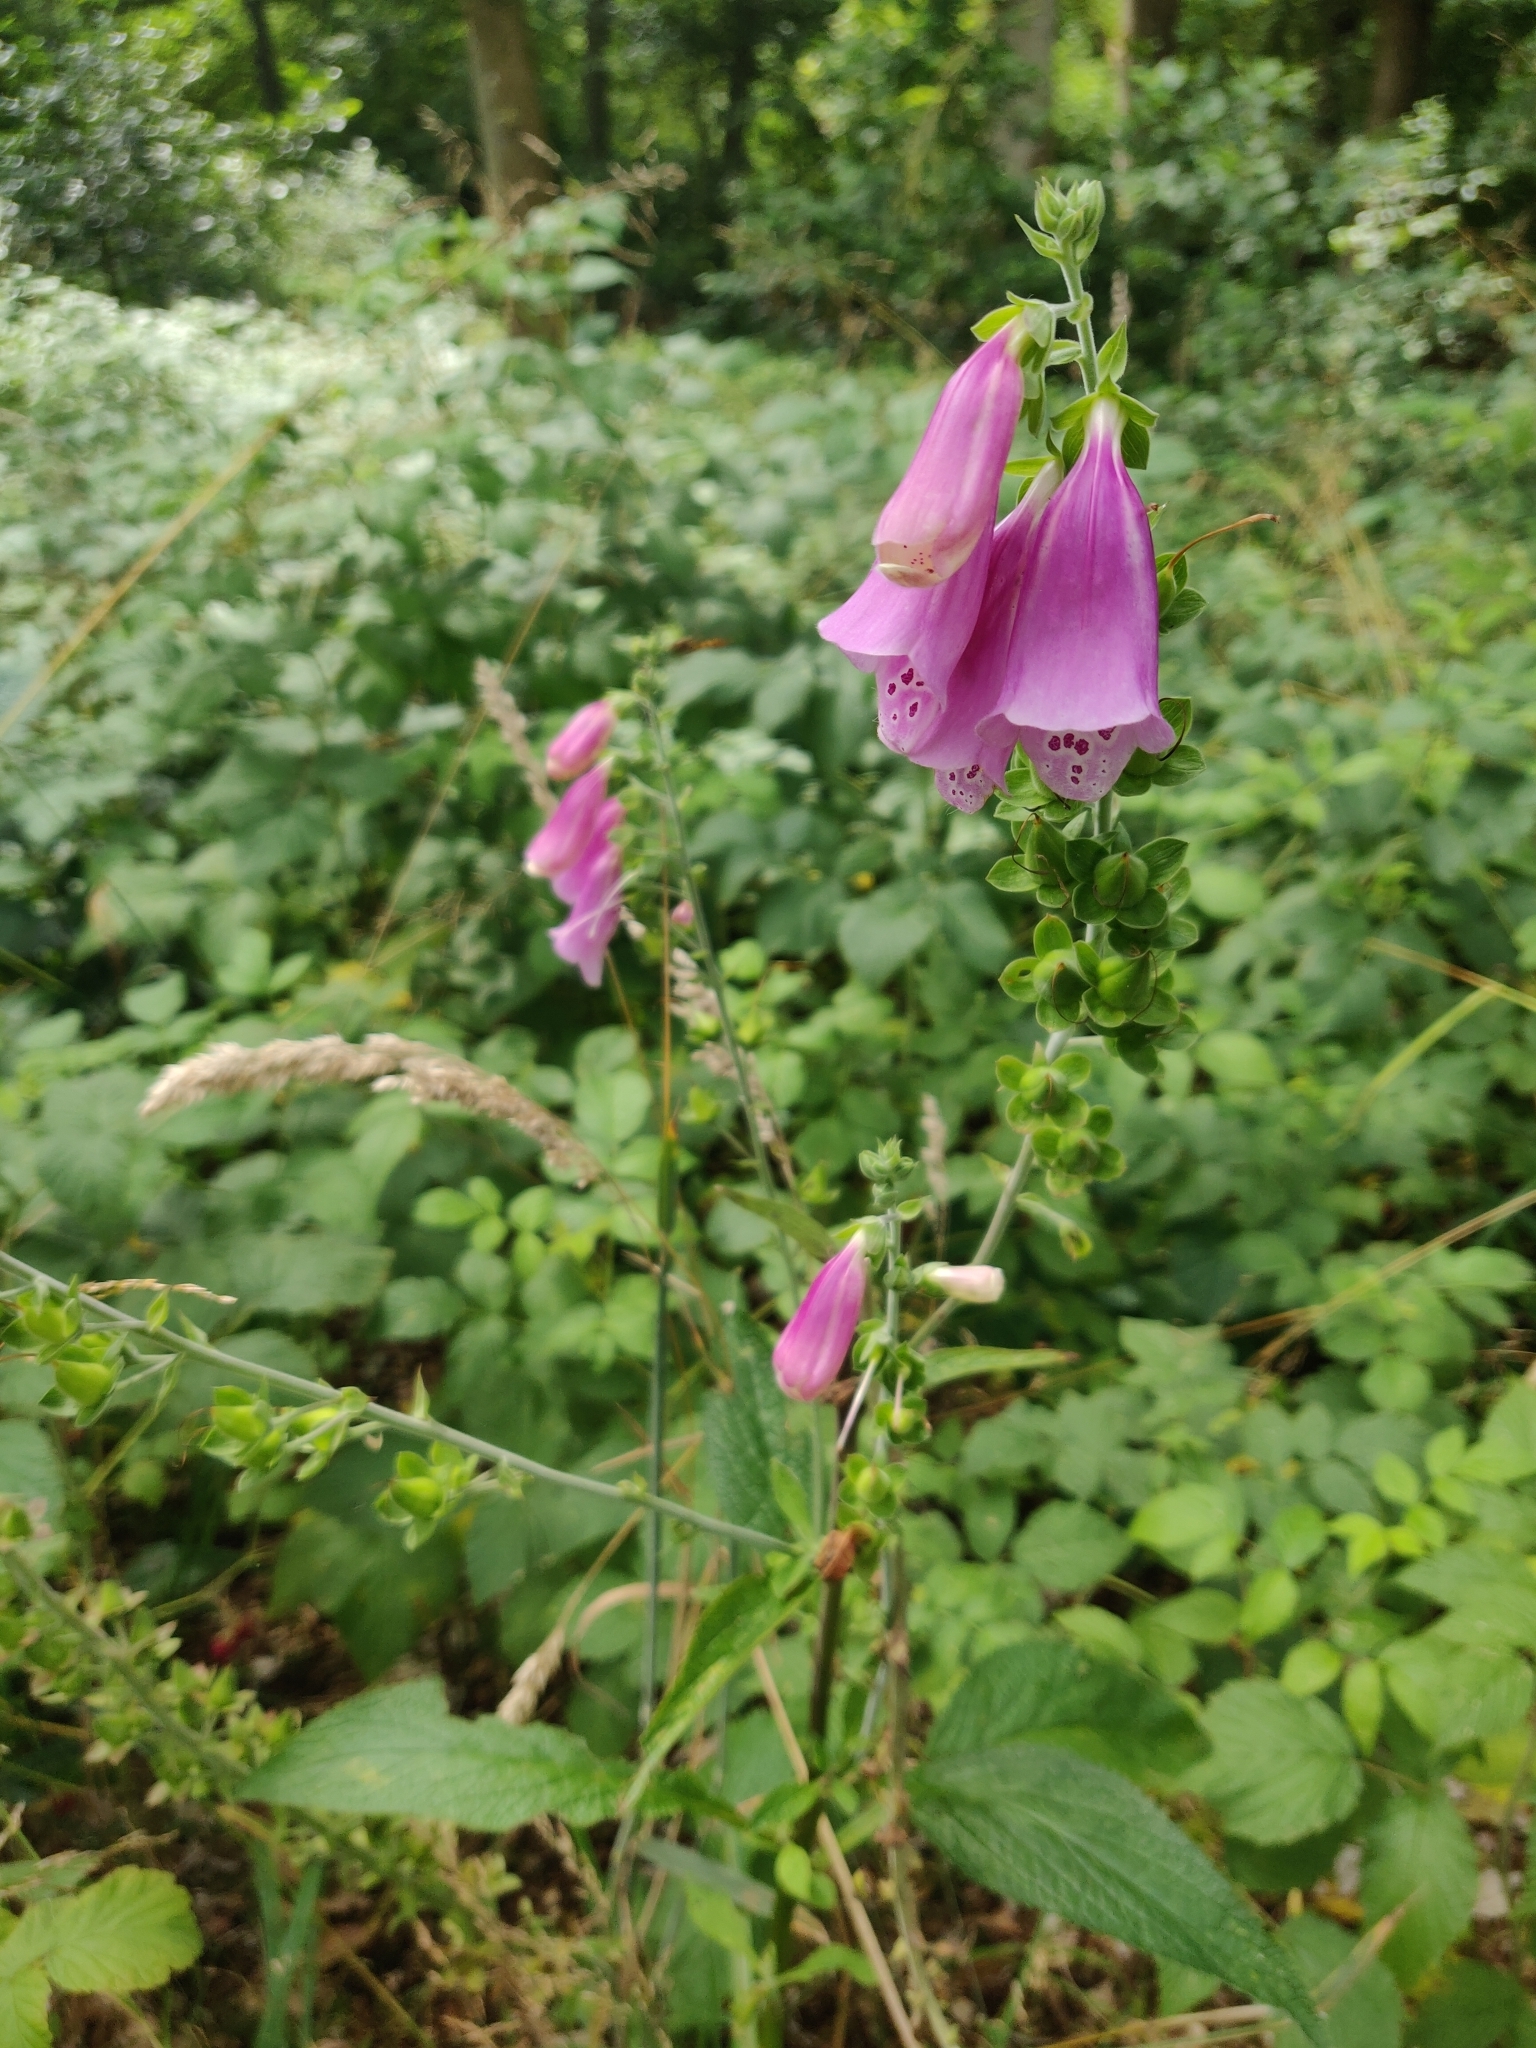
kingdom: Plantae
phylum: Tracheophyta
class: Magnoliopsida
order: Lamiales
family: Plantaginaceae
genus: Digitalis
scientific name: Digitalis purpurea
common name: Foxglove
